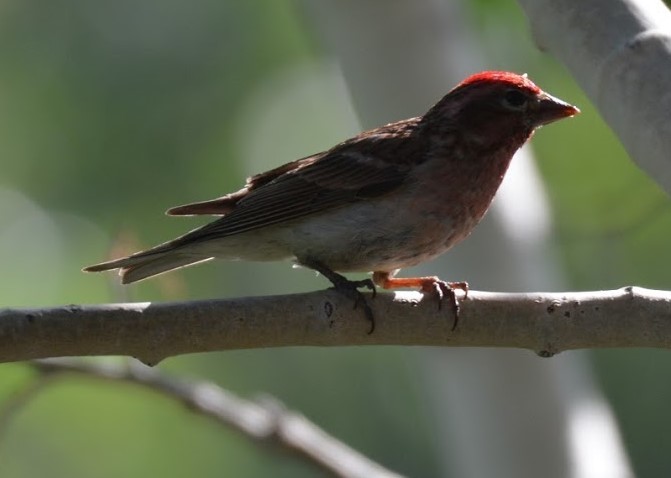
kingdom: Animalia
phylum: Chordata
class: Aves
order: Passeriformes
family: Fringillidae
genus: Haemorhous
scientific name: Haemorhous cassinii
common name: Cassin's finch
